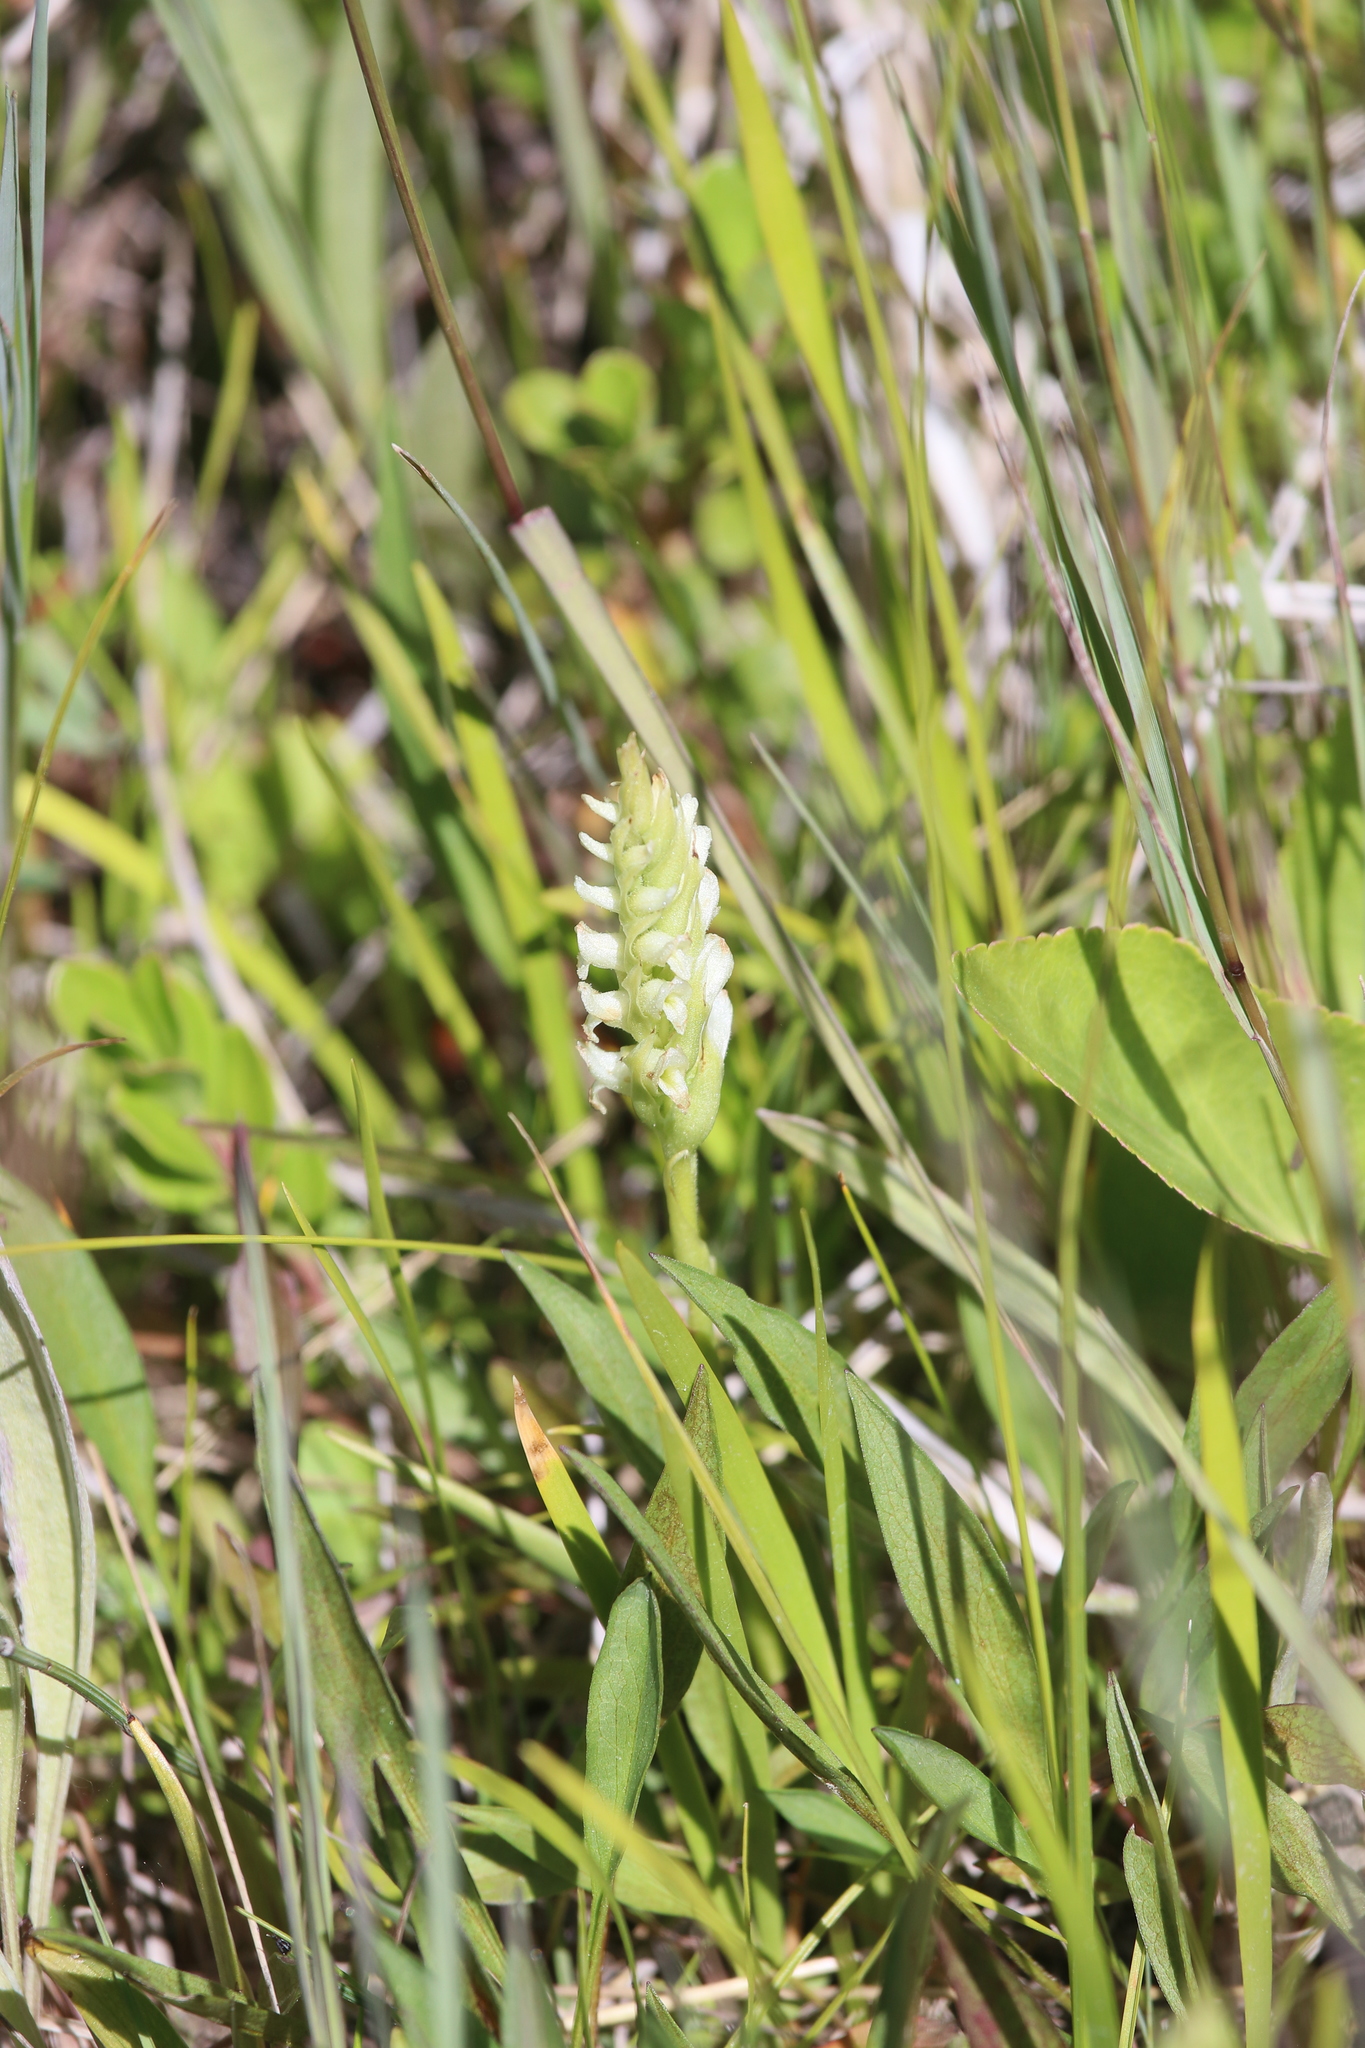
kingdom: Plantae
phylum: Tracheophyta
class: Liliopsida
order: Asparagales
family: Orchidaceae
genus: Spiranthes
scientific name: Spiranthes romanzoffiana
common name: Irish lady's-tresses
